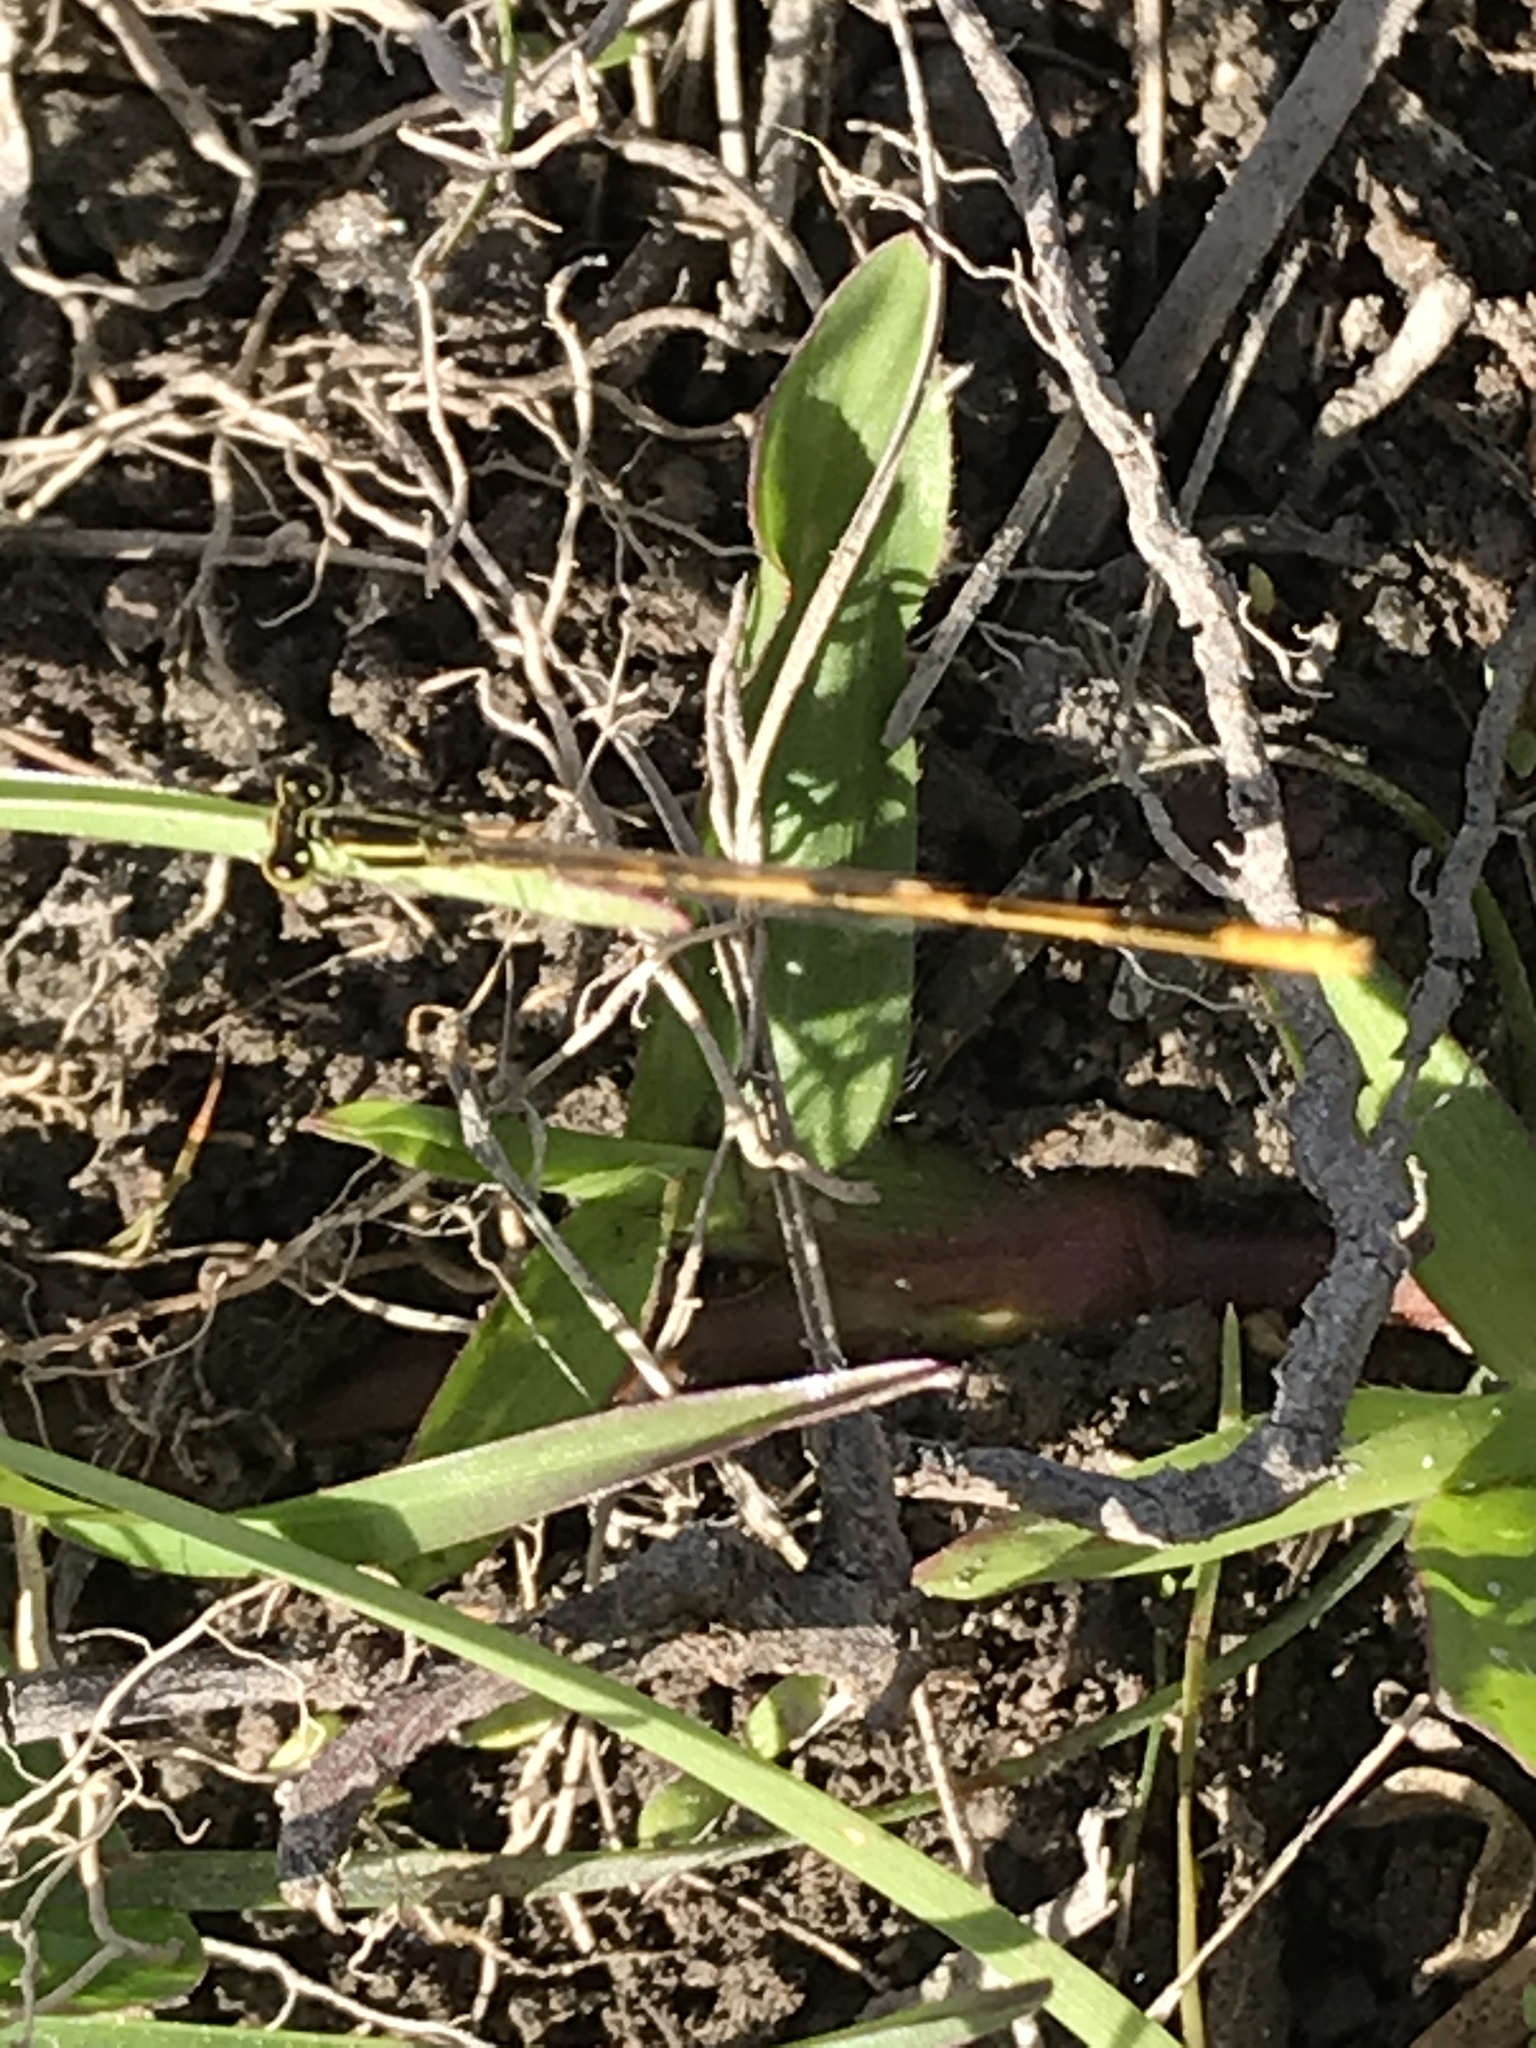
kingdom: Animalia
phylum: Arthropoda
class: Insecta
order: Odonata
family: Coenagrionidae
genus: Ischnura
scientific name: Ischnura hastata
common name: Citrine forktail
